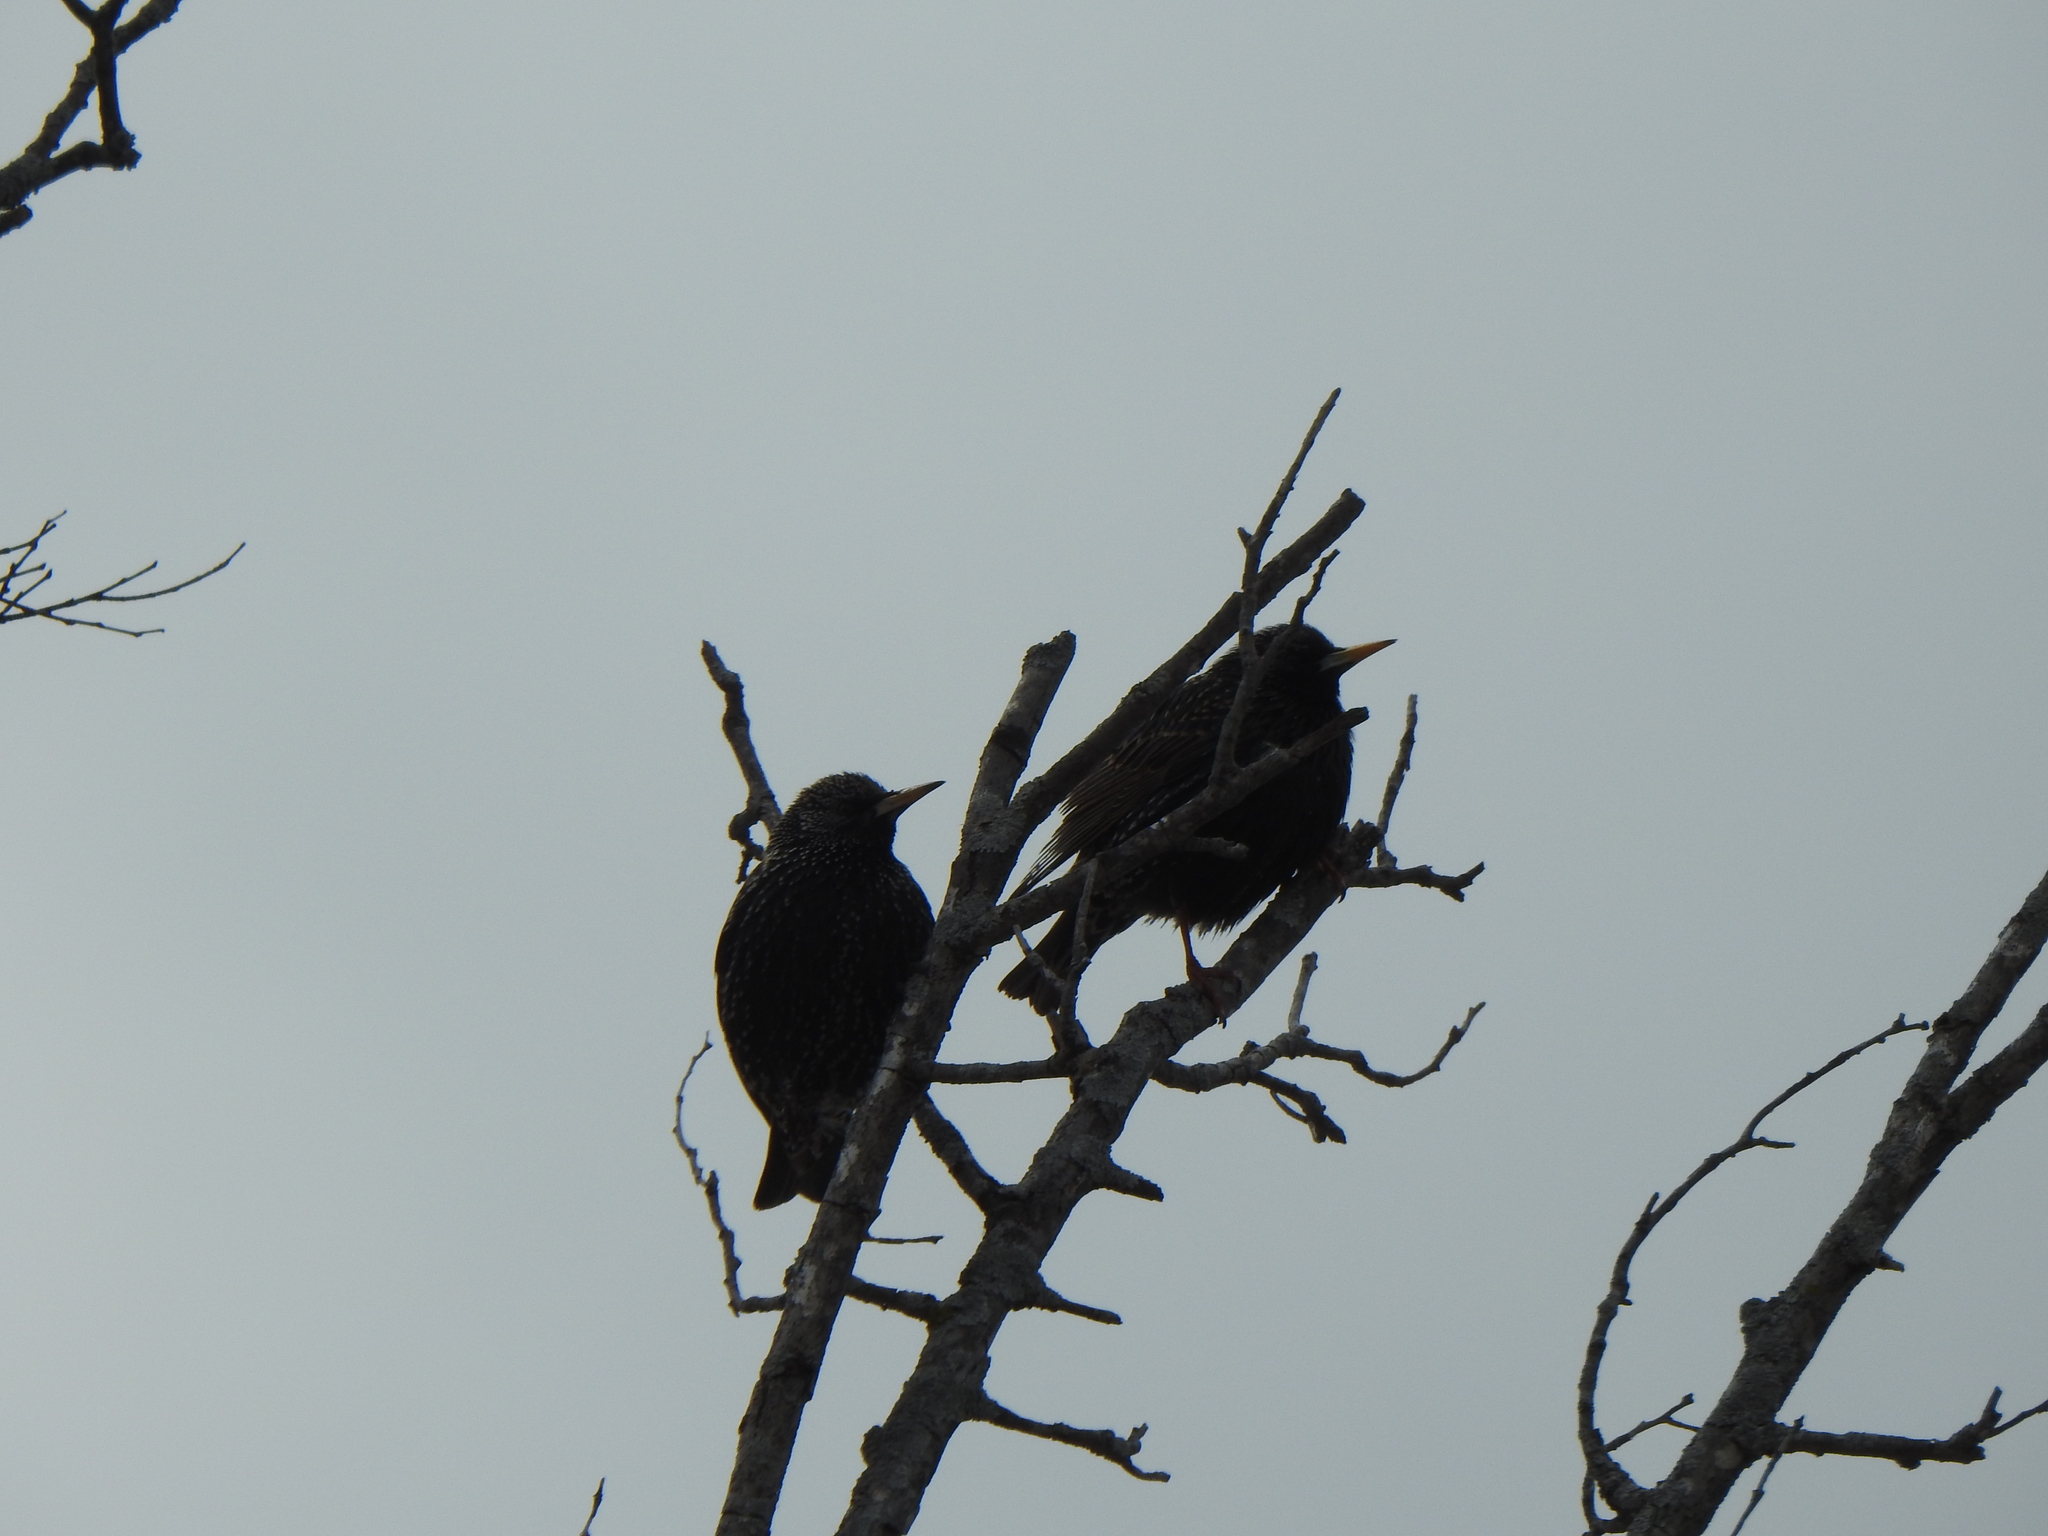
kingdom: Animalia
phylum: Chordata
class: Aves
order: Passeriformes
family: Sturnidae
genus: Sturnus
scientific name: Sturnus vulgaris
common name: Common starling
